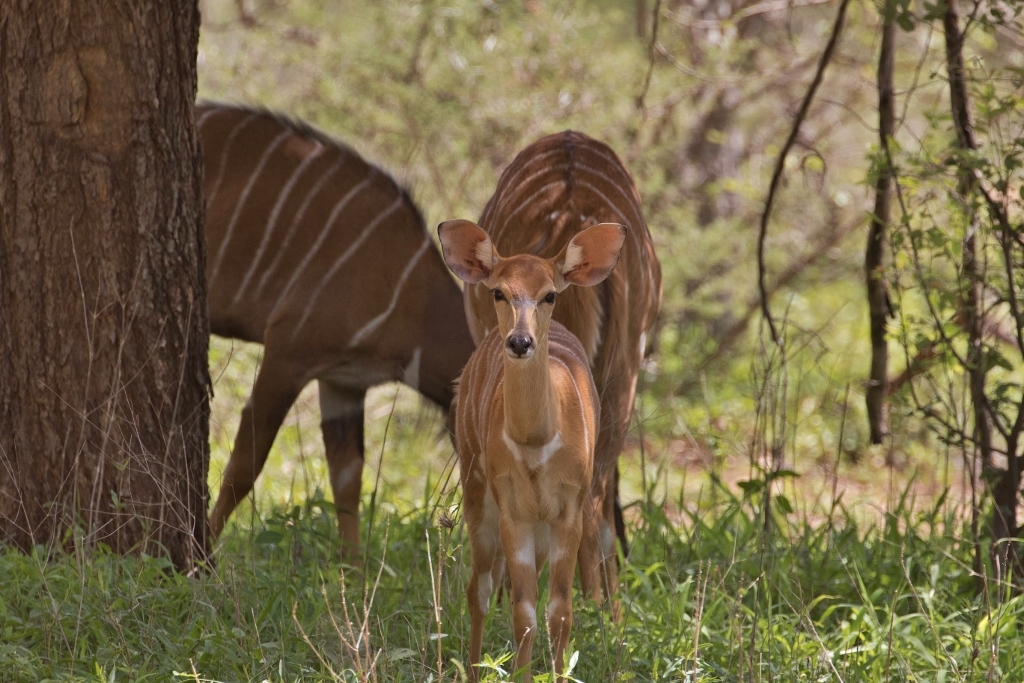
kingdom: Animalia
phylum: Chordata
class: Mammalia
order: Artiodactyla
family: Bovidae
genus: Tragelaphus
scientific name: Tragelaphus angasii
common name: Nyala
